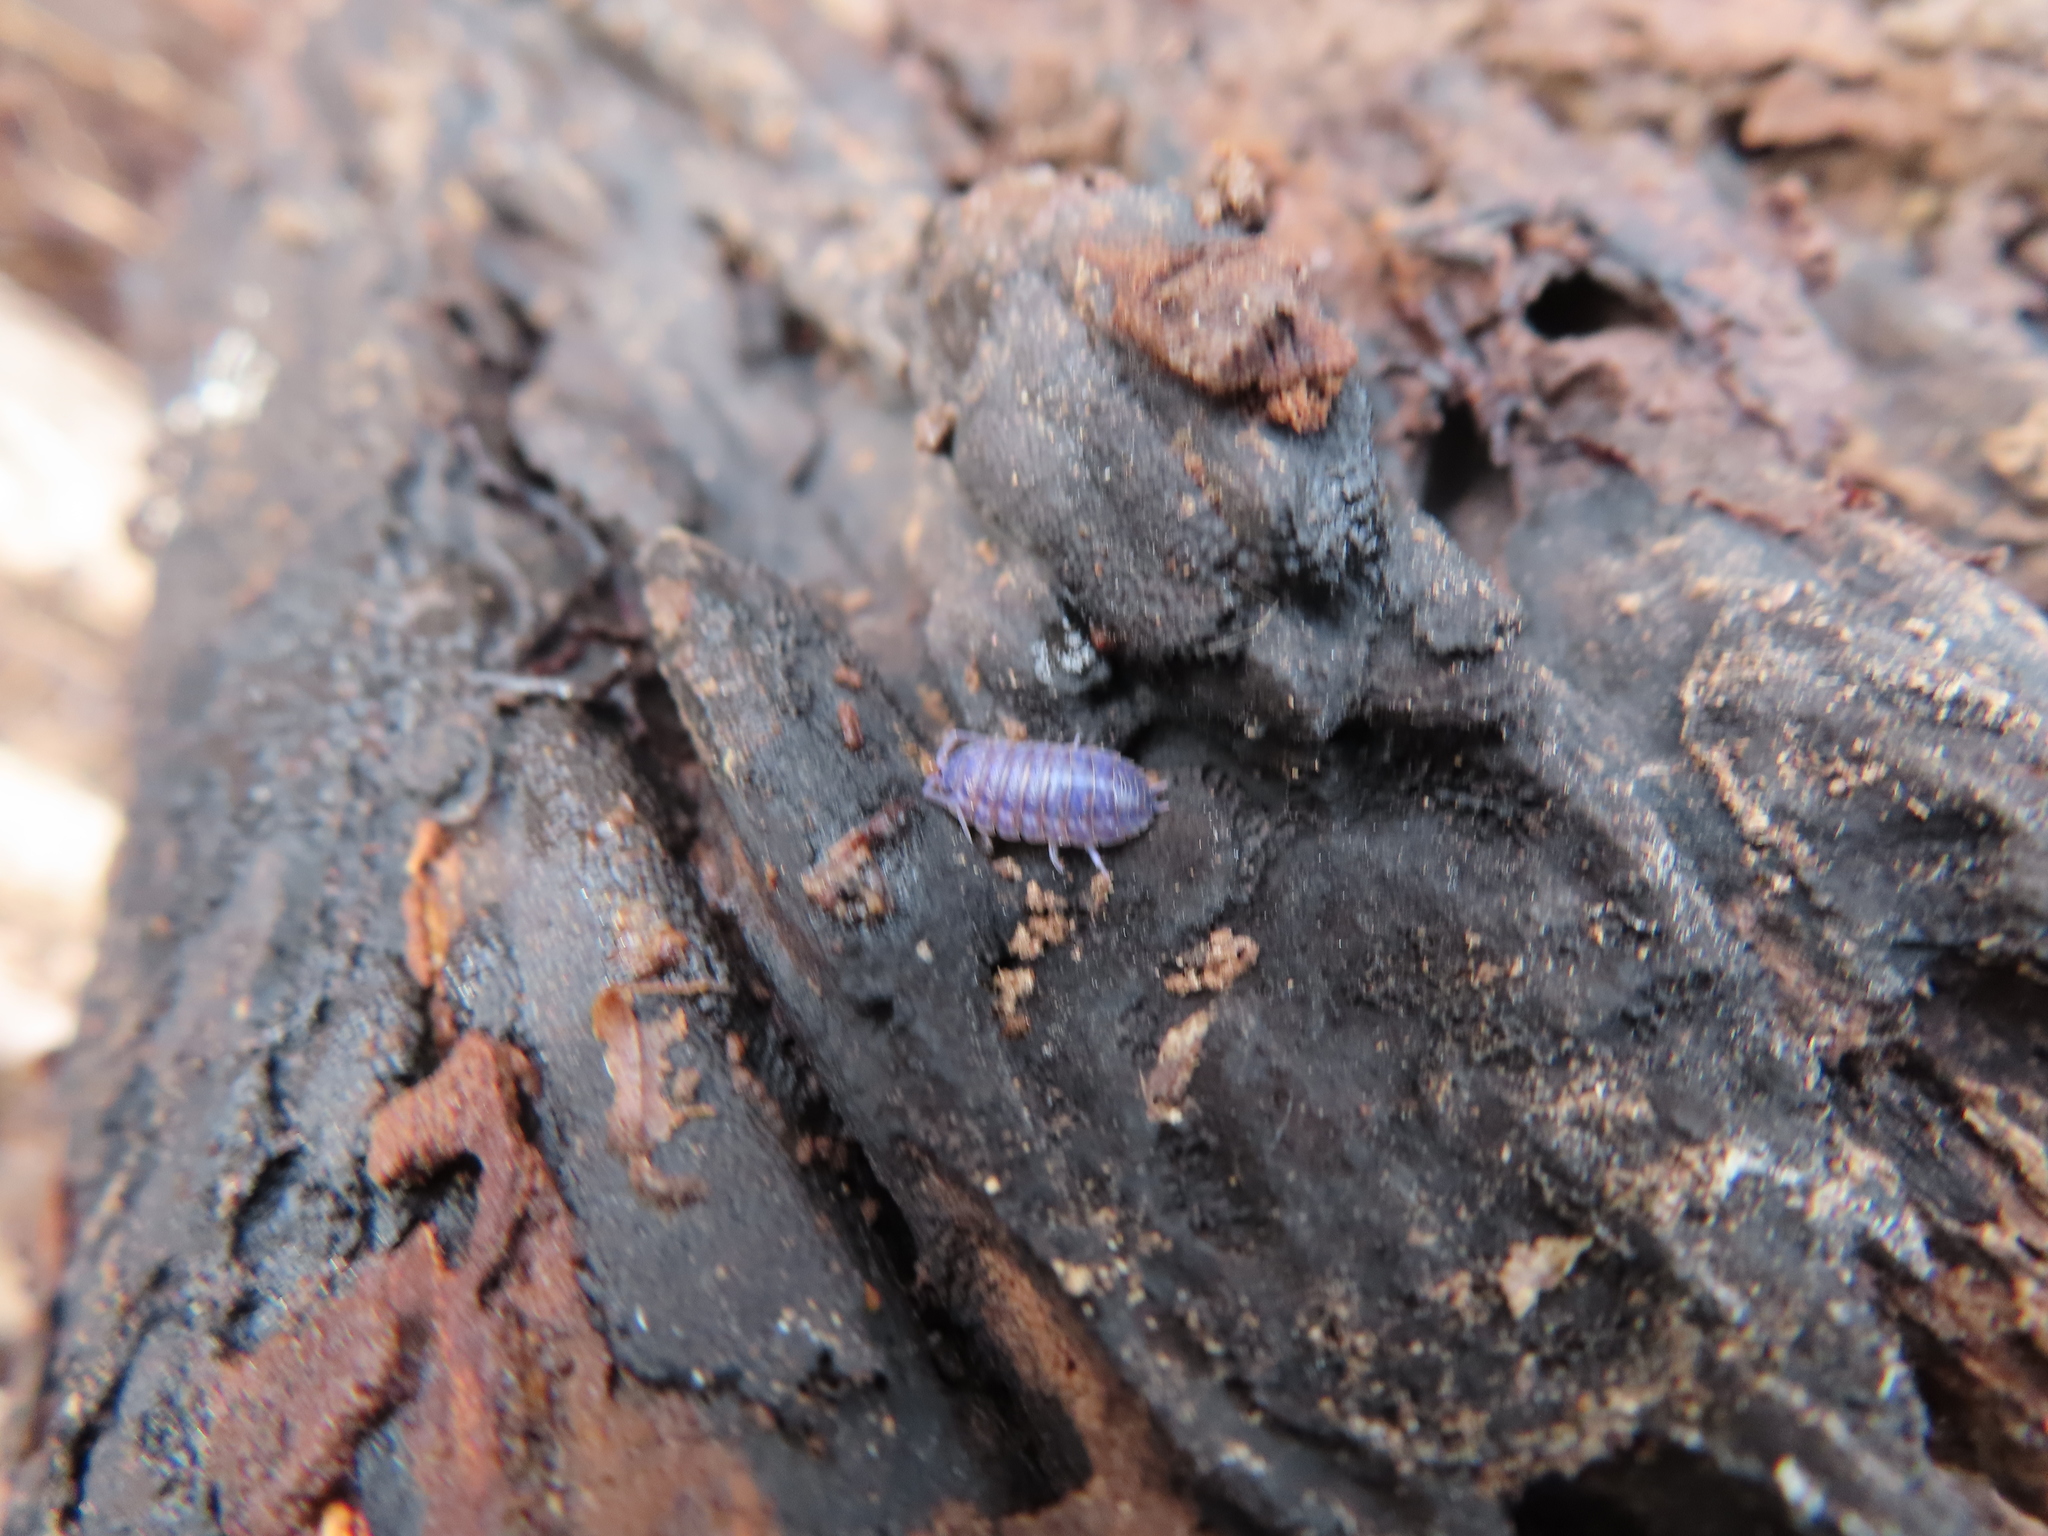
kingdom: Animalia
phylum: Arthropoda
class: Malacostraca
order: Isopoda
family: Porcellionidae
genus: Porcellio
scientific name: Porcellio scaber
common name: Common rough woodlouse
